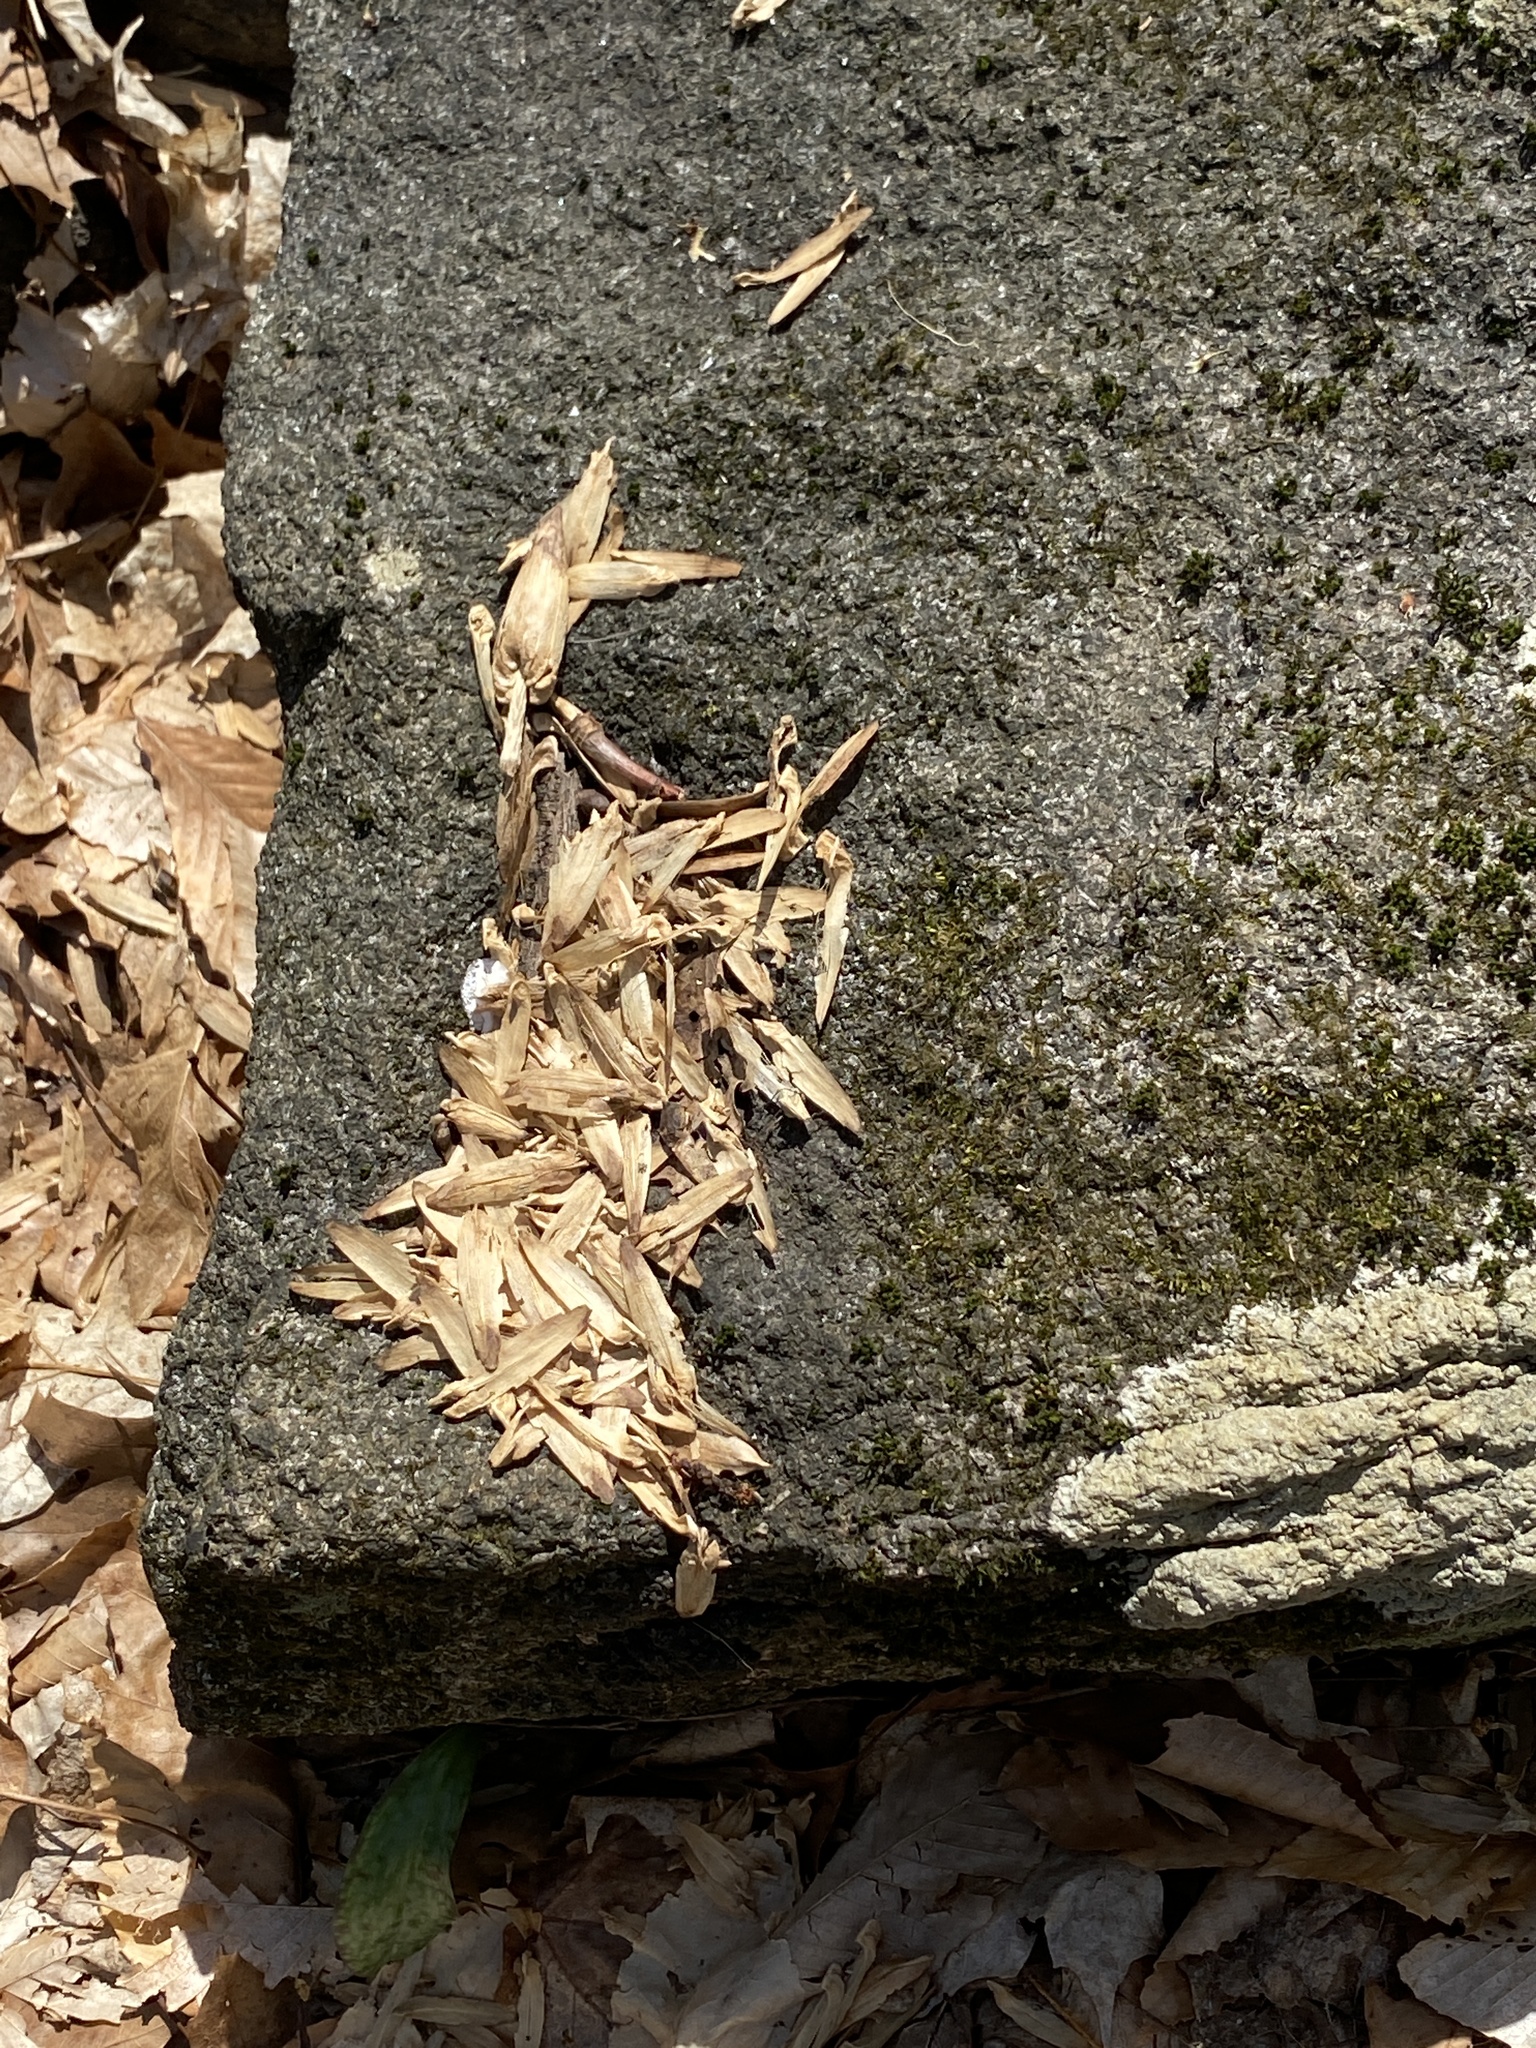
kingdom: Plantae
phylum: Tracheophyta
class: Magnoliopsida
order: Magnoliales
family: Magnoliaceae
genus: Liriodendron
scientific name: Liriodendron tulipifera
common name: Tulip tree
